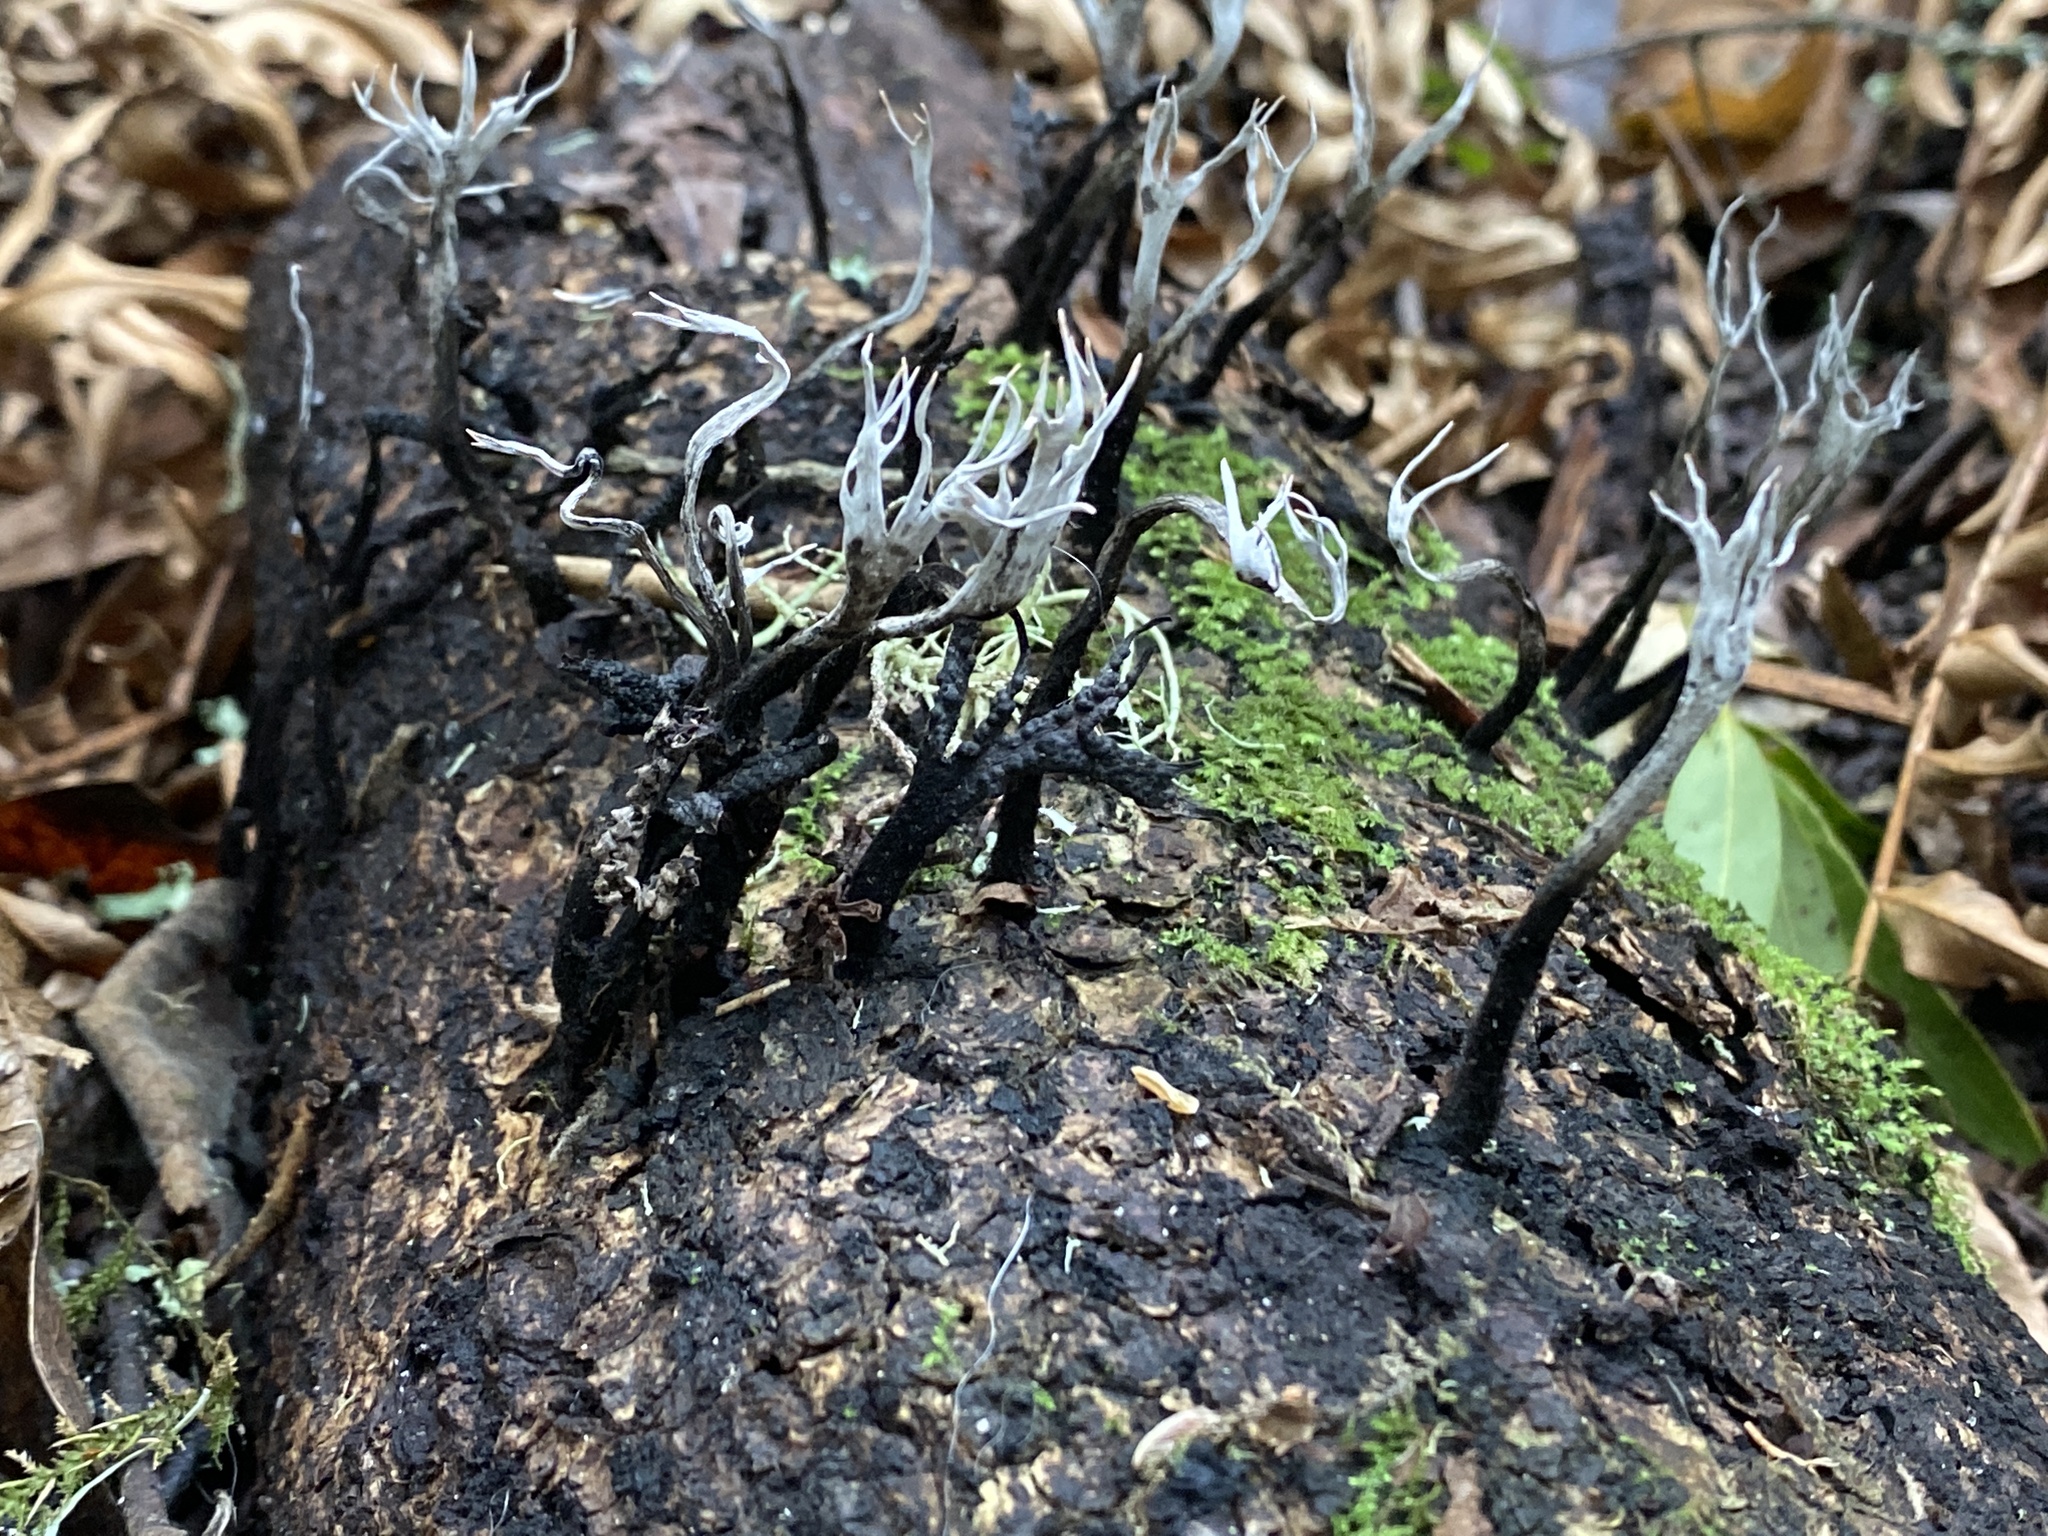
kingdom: Fungi
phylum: Ascomycota
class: Sordariomycetes
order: Xylariales
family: Xylariaceae
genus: Xylaria
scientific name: Xylaria hypoxylon
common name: Candle-snuff fungus
